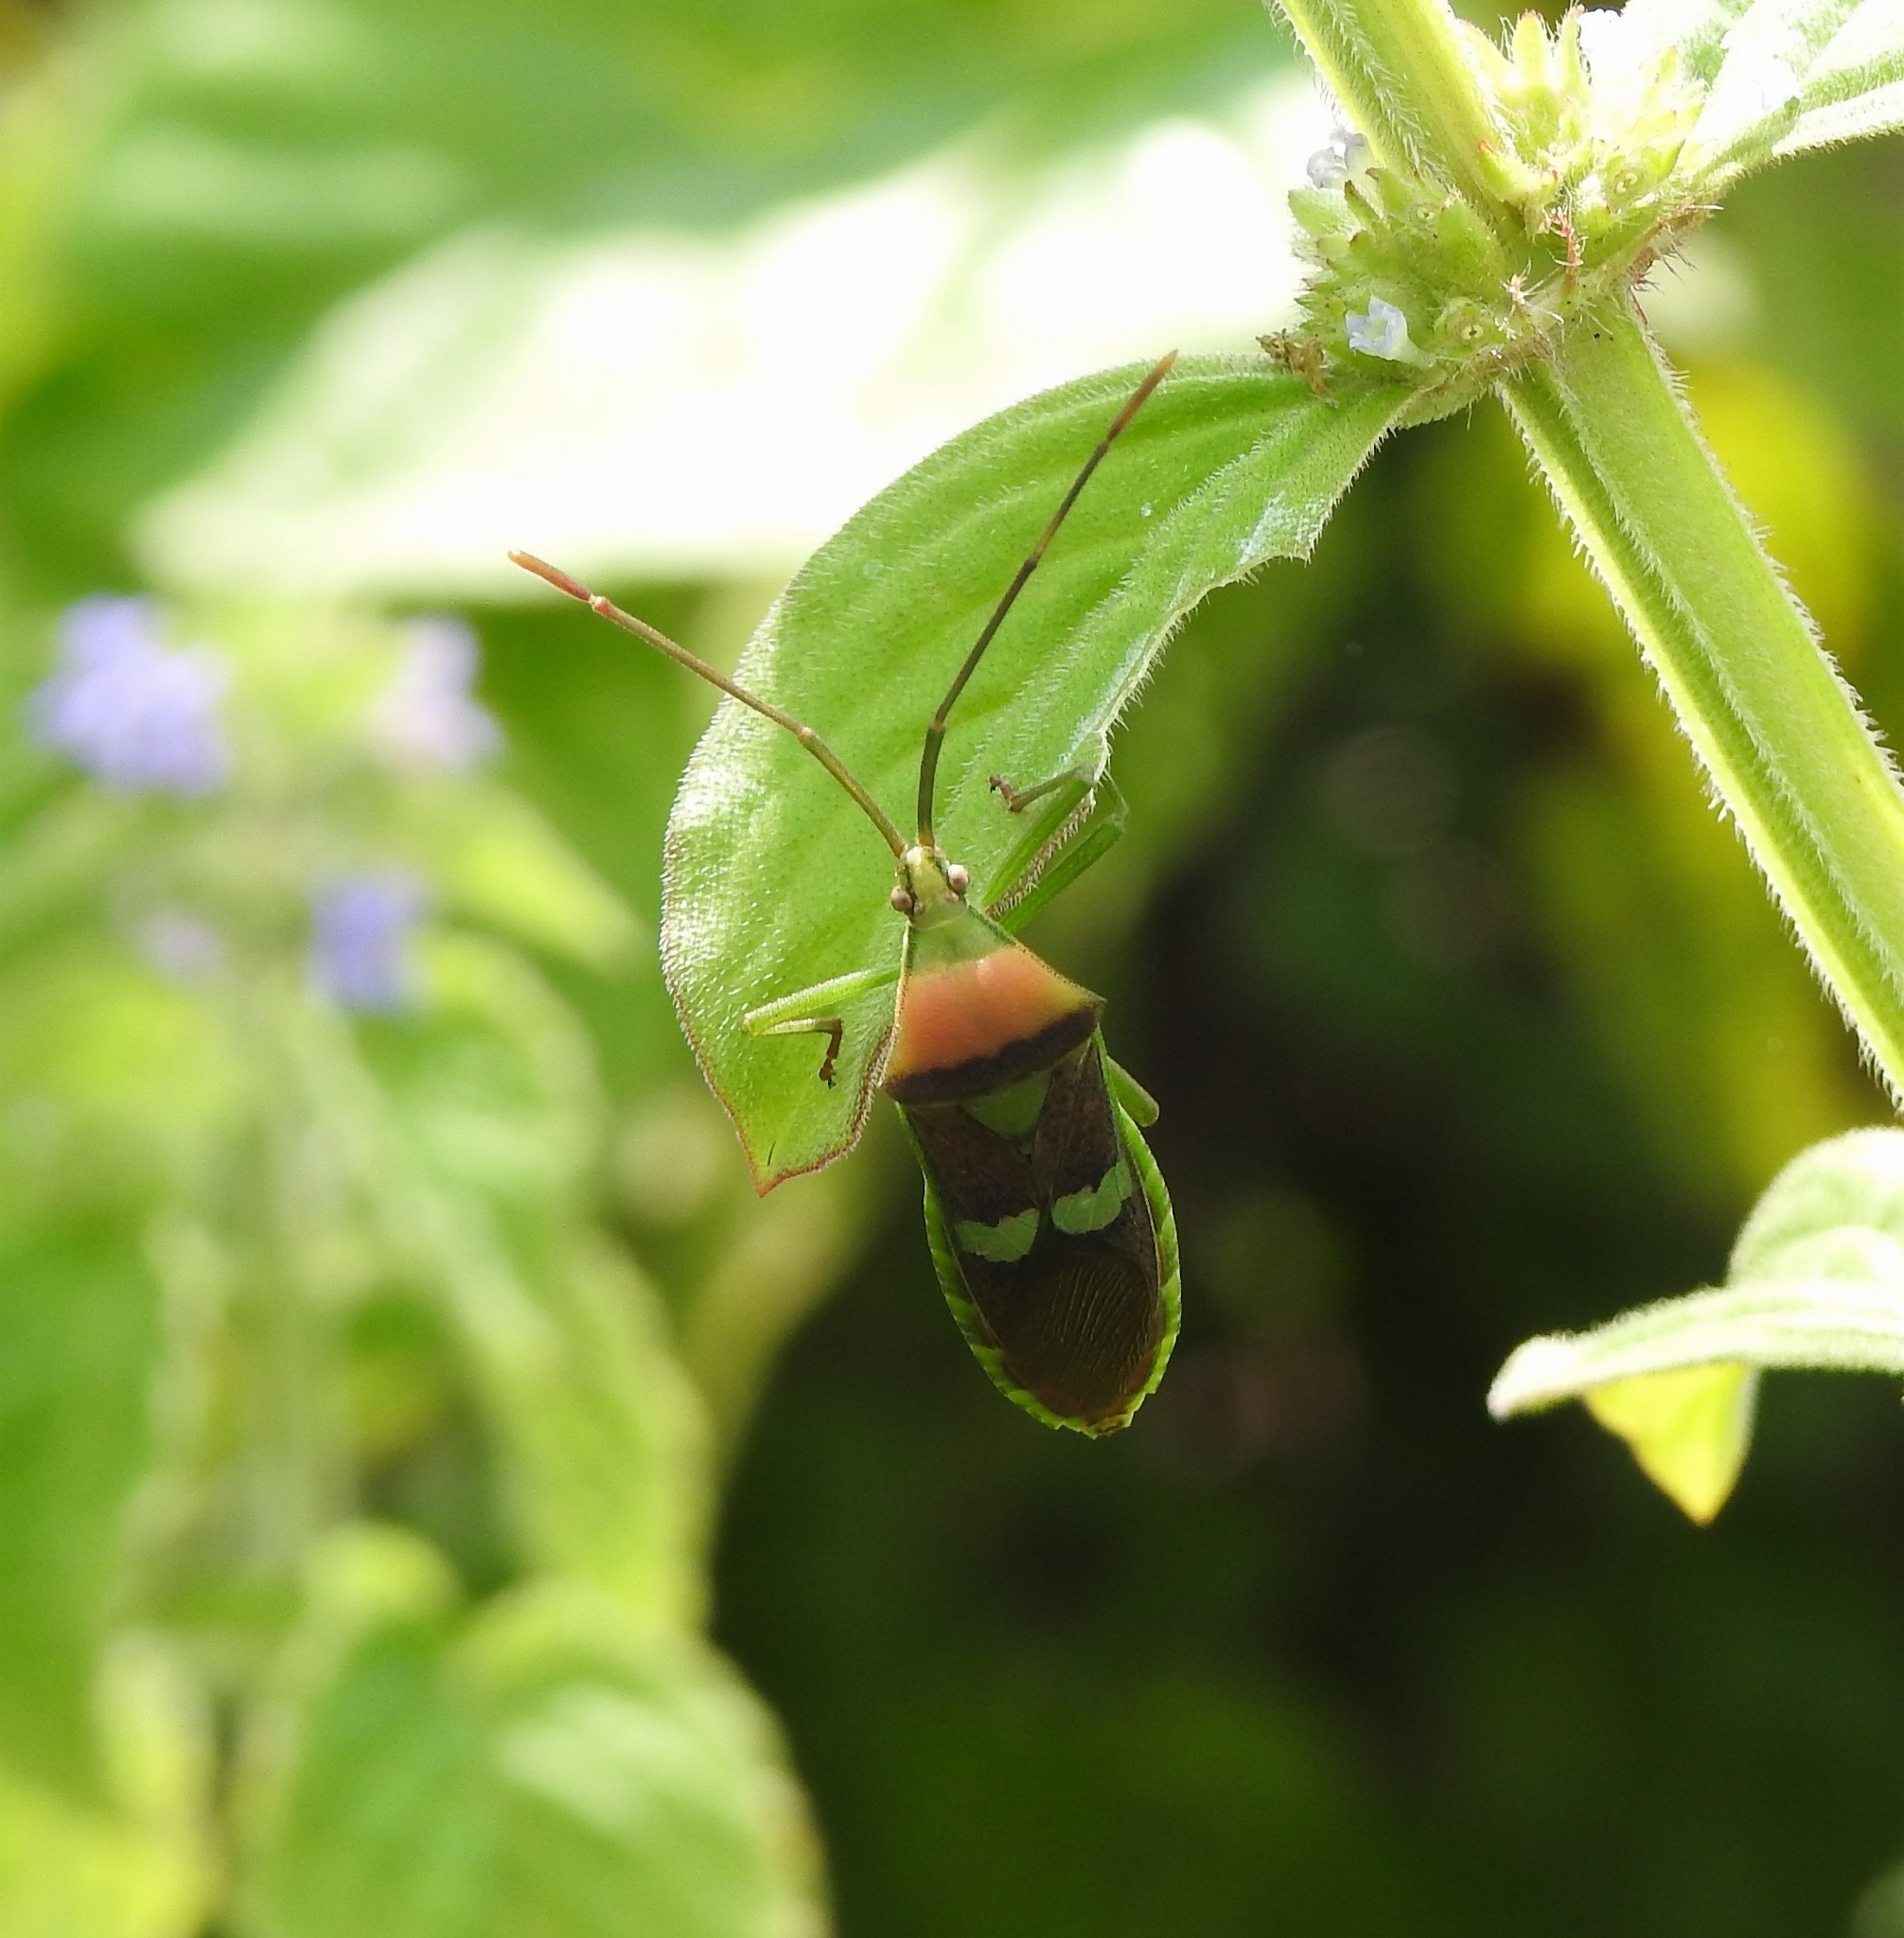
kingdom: Animalia
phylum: Arthropoda
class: Insecta
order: Hemiptera
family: Coreidae
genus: Prismatocerus
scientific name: Prismatocerus signatus
